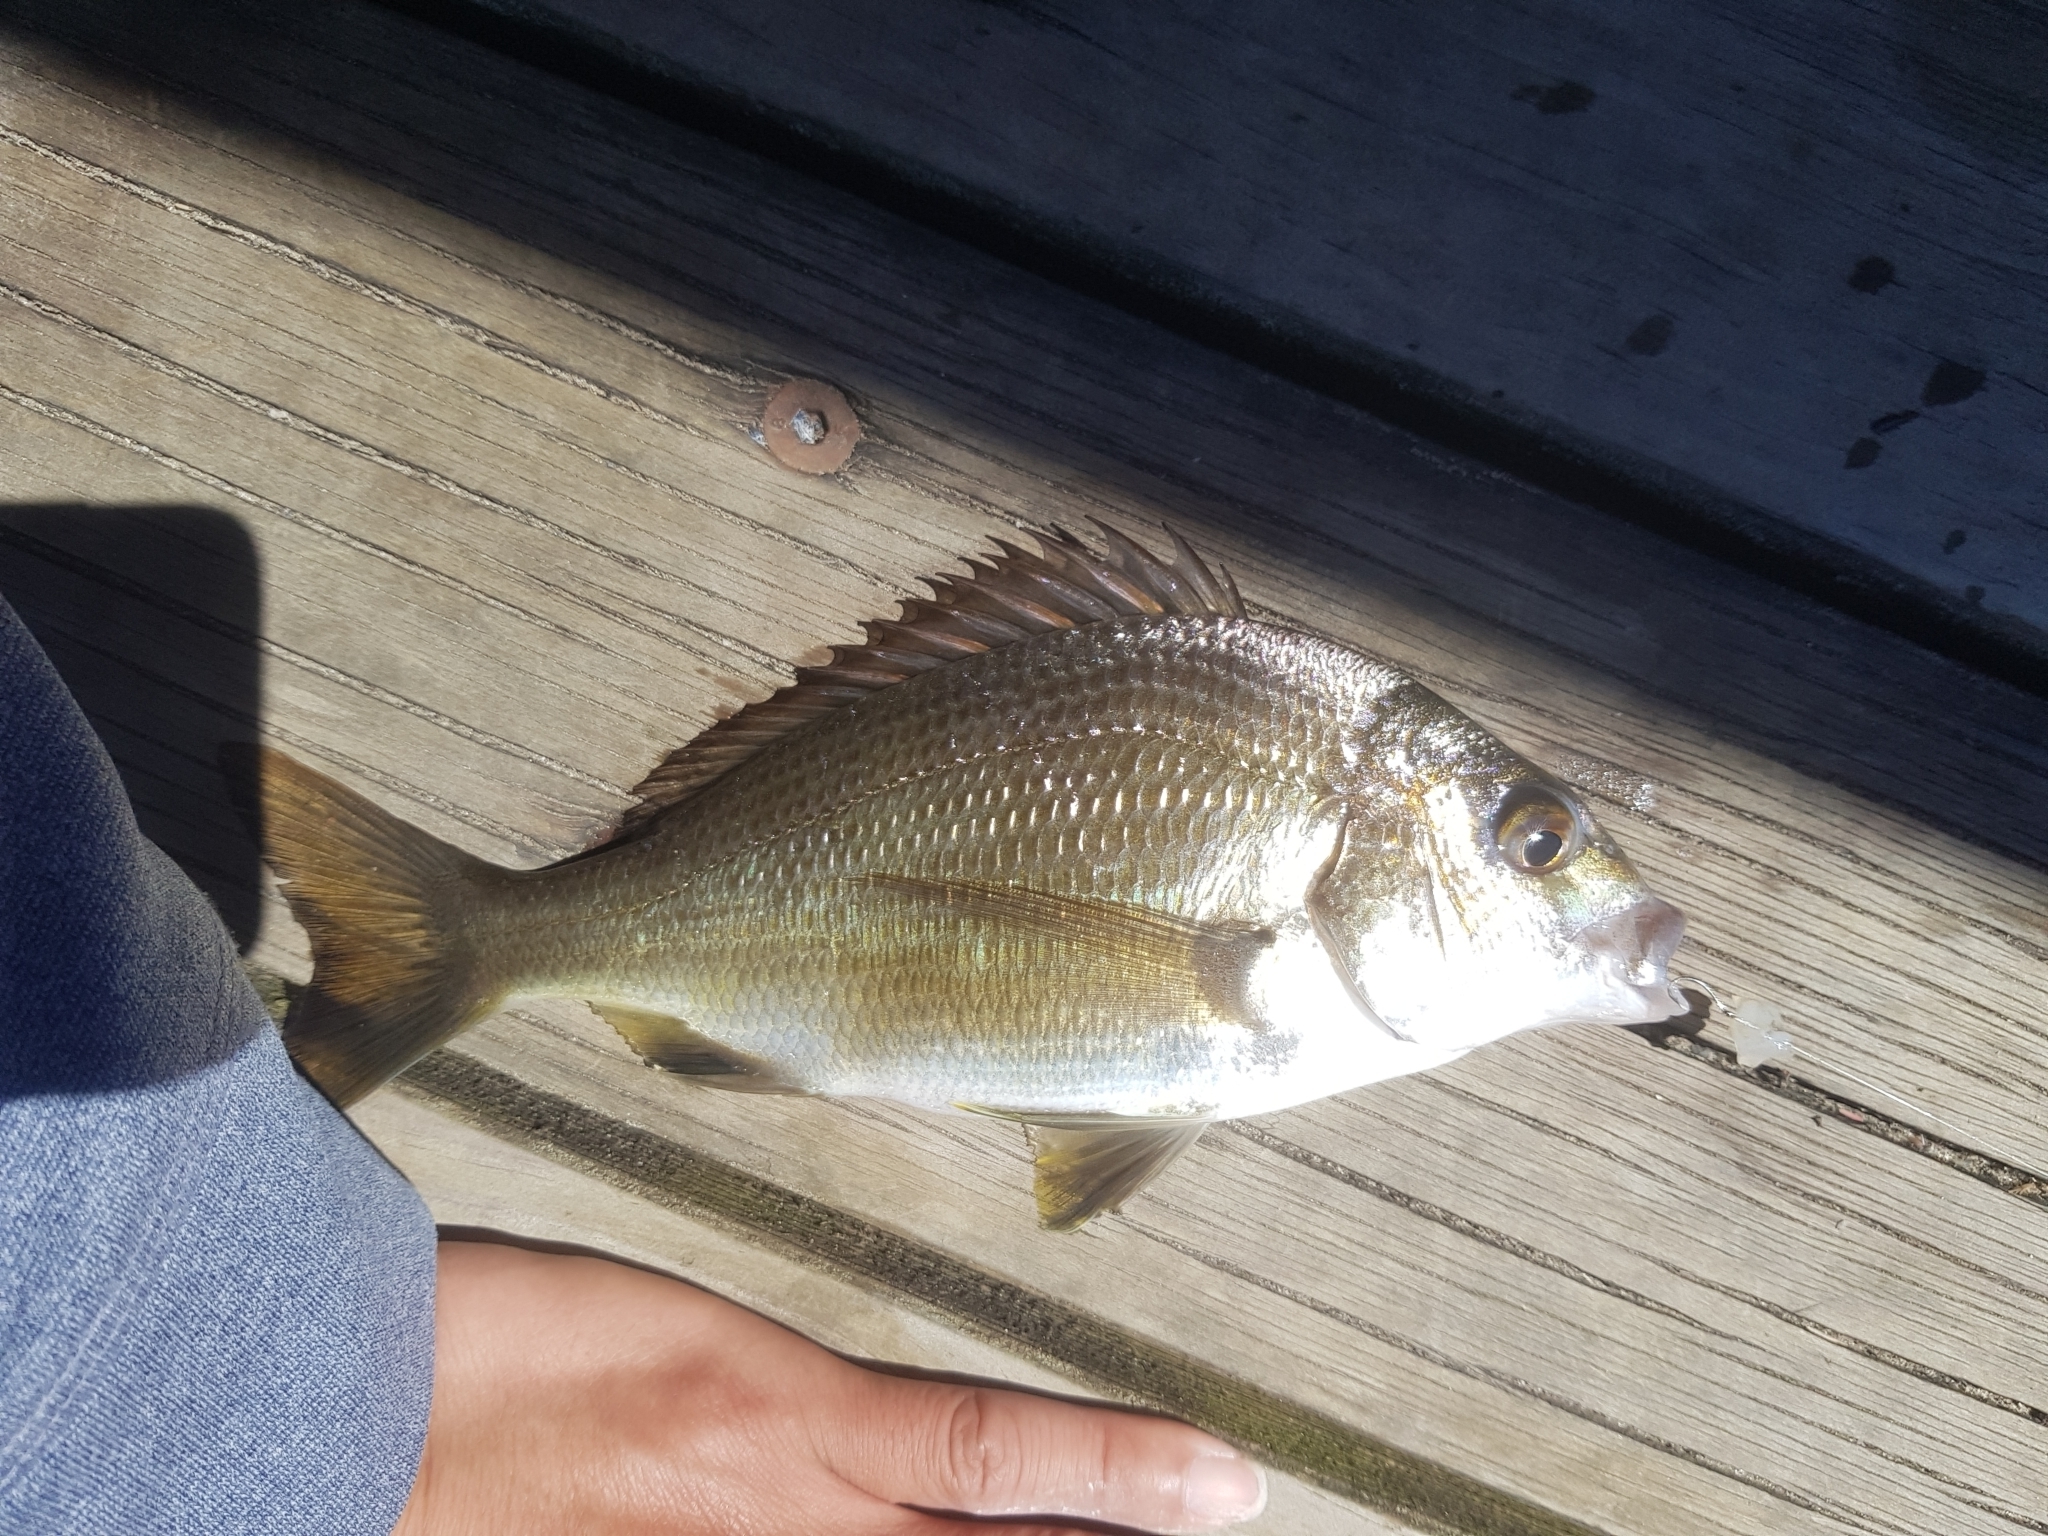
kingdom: Animalia
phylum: Chordata
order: Perciformes
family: Sparidae
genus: Acanthopagrus
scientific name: Acanthopagrus butcheri
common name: Black bream
